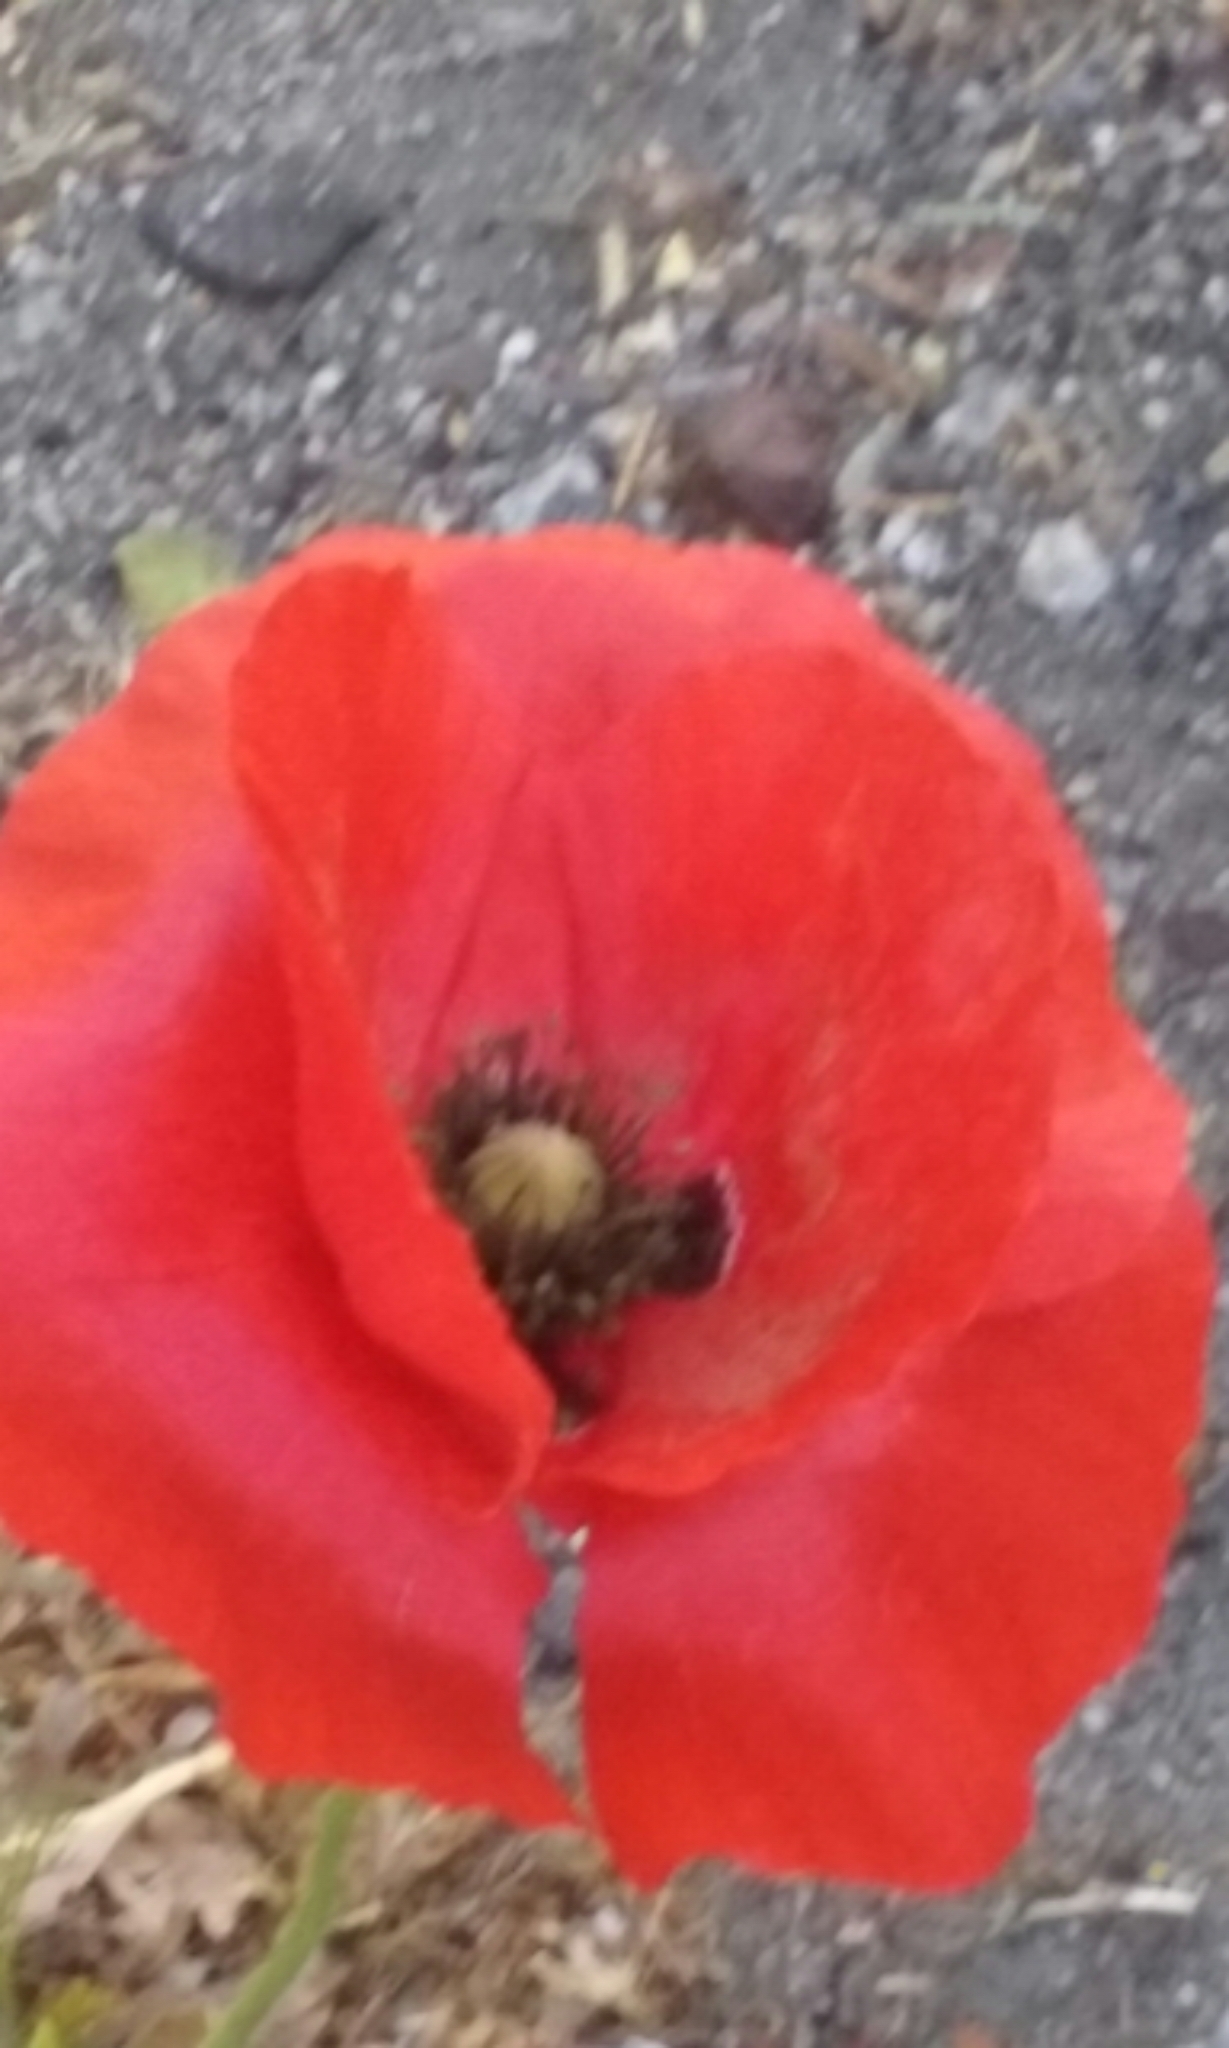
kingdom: Plantae
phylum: Tracheophyta
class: Magnoliopsida
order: Ranunculales
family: Papaveraceae
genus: Papaver
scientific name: Papaver rhoeas
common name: Corn poppy
